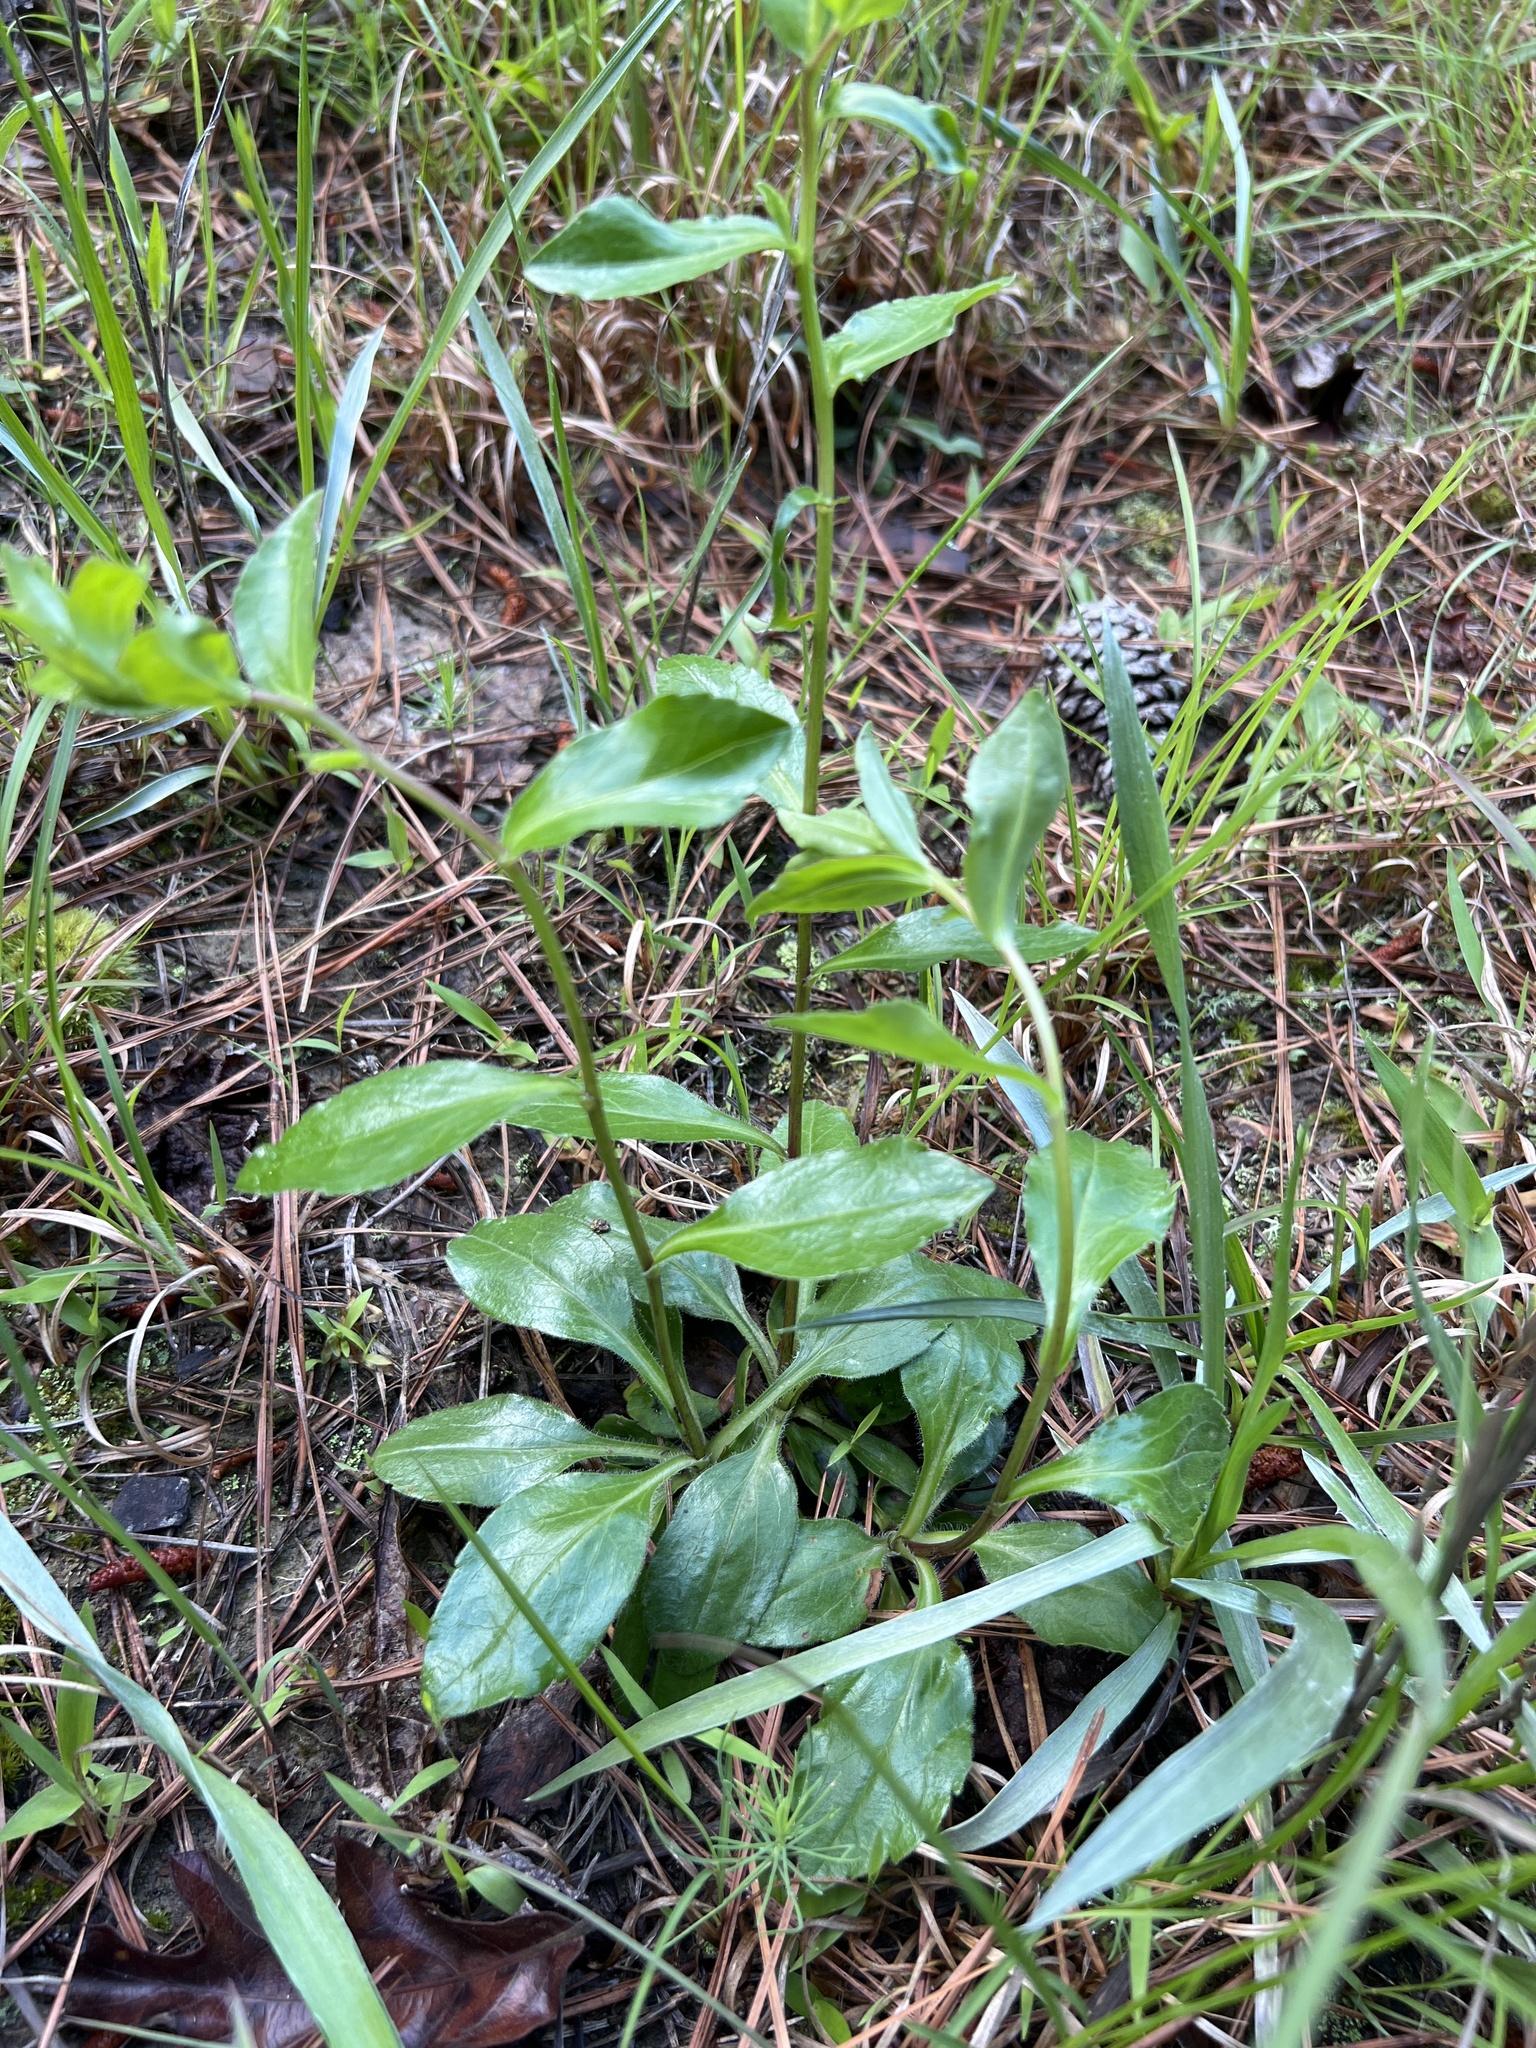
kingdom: Plantae
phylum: Tracheophyta
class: Magnoliopsida
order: Asterales
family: Asteraceae
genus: Sericocarpus
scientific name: Sericocarpus asteroides
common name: Toothed white-top aster
